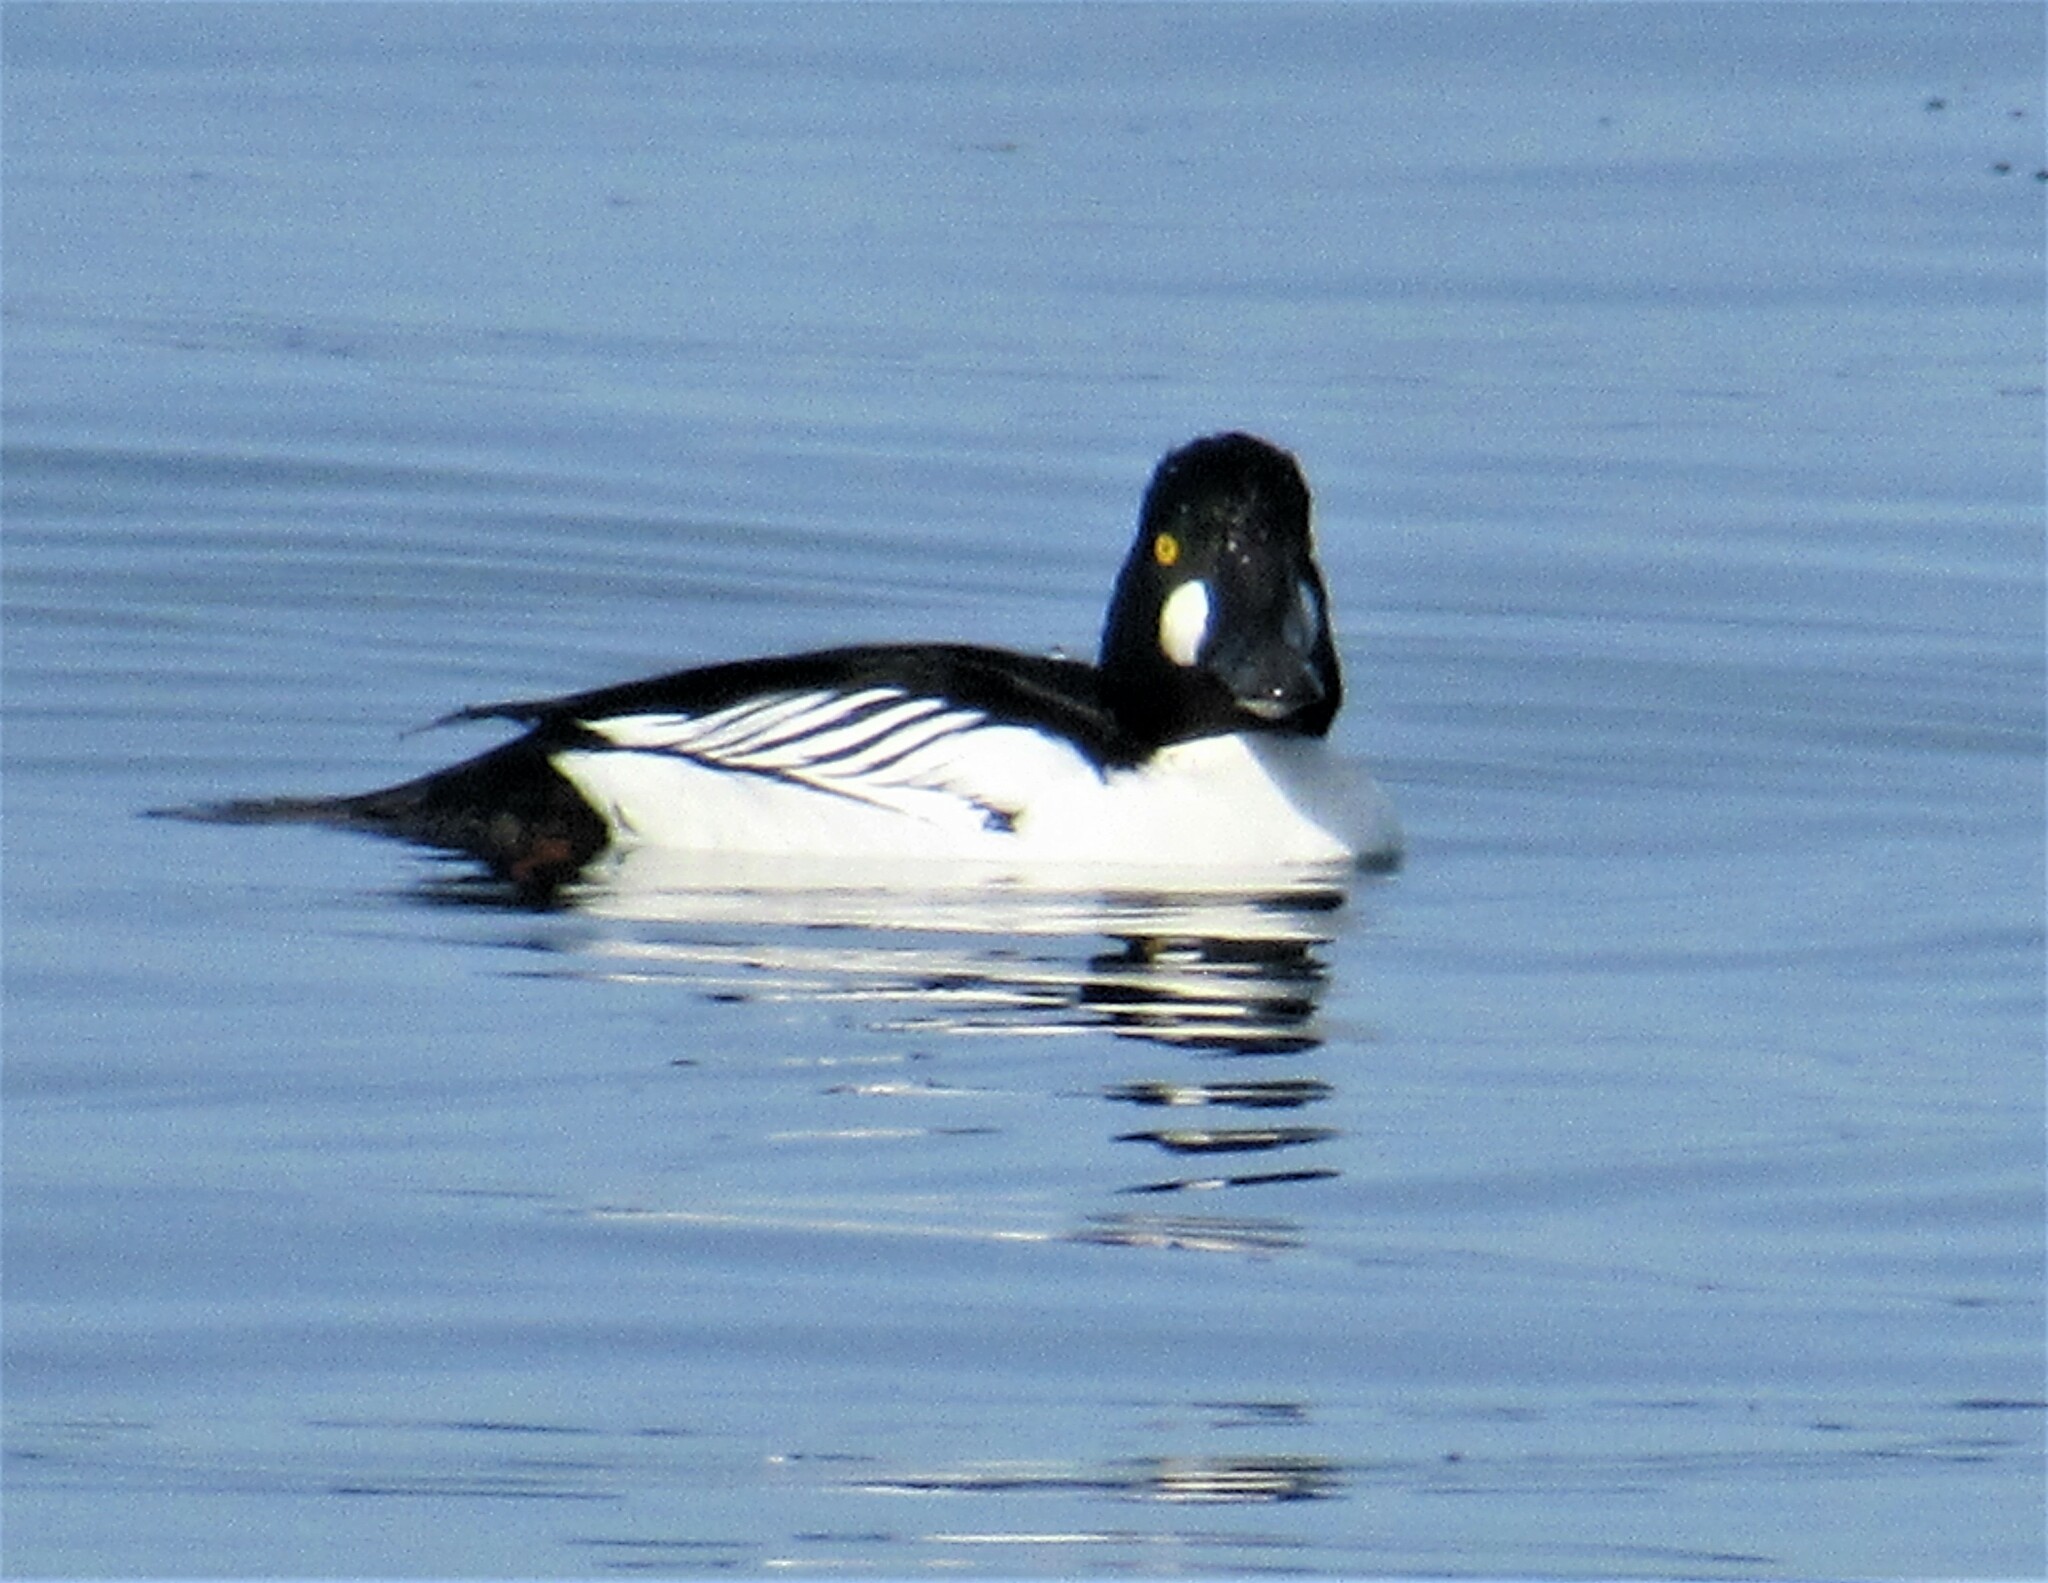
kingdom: Animalia
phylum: Chordata
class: Aves
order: Anseriformes
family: Anatidae
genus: Bucephala
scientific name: Bucephala clangula
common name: Common goldeneye
